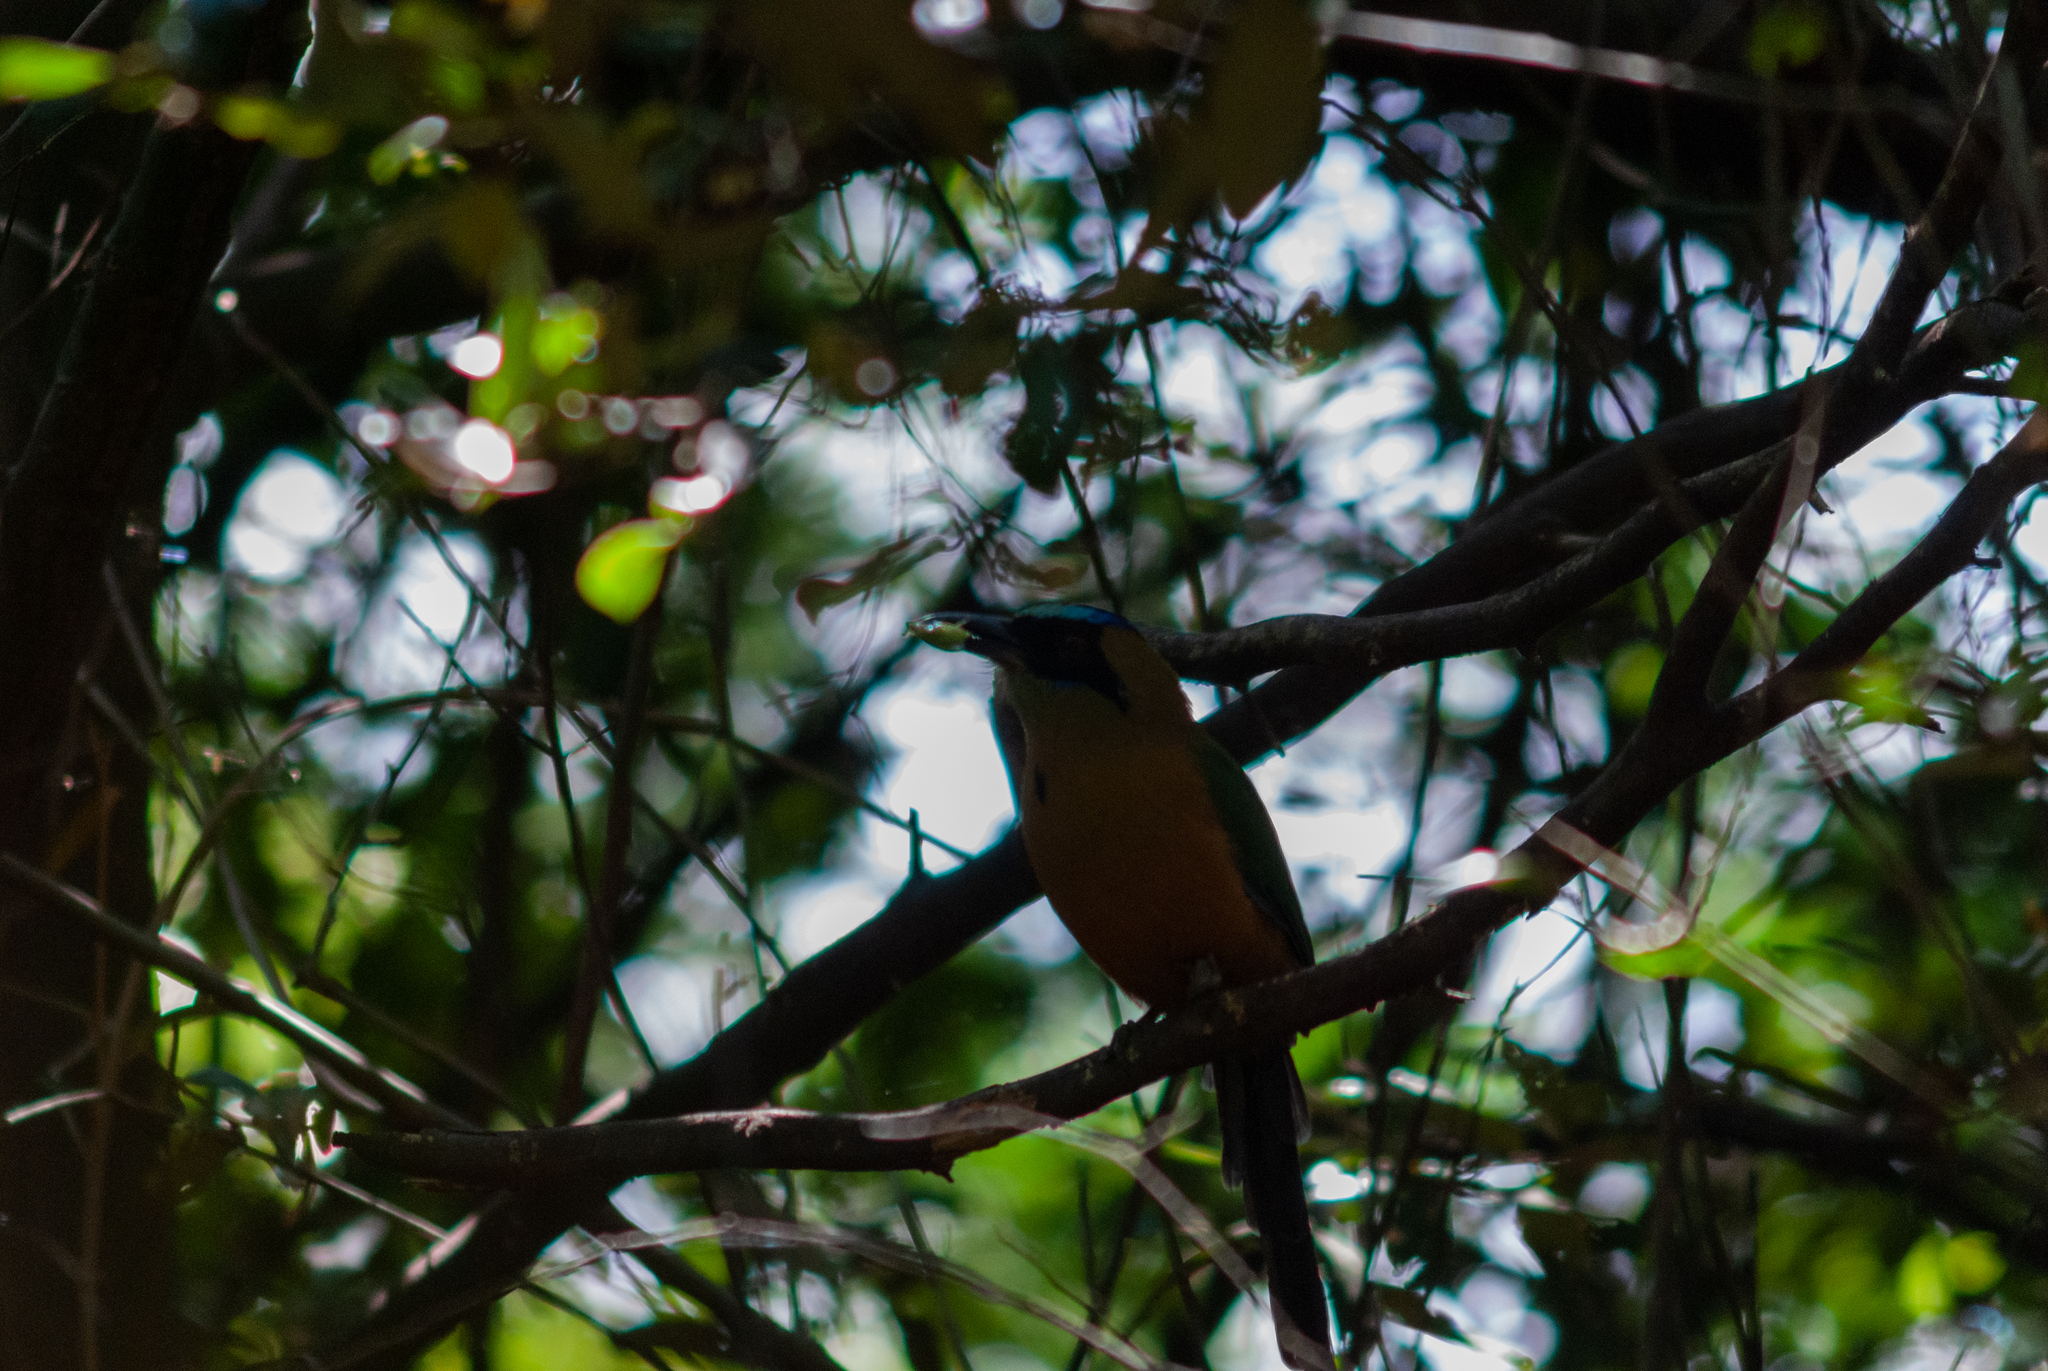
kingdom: Animalia
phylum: Chordata
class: Aves
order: Coraciiformes
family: Momotidae
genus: Momotus
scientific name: Momotus subrufescens
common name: Whooping motmot
